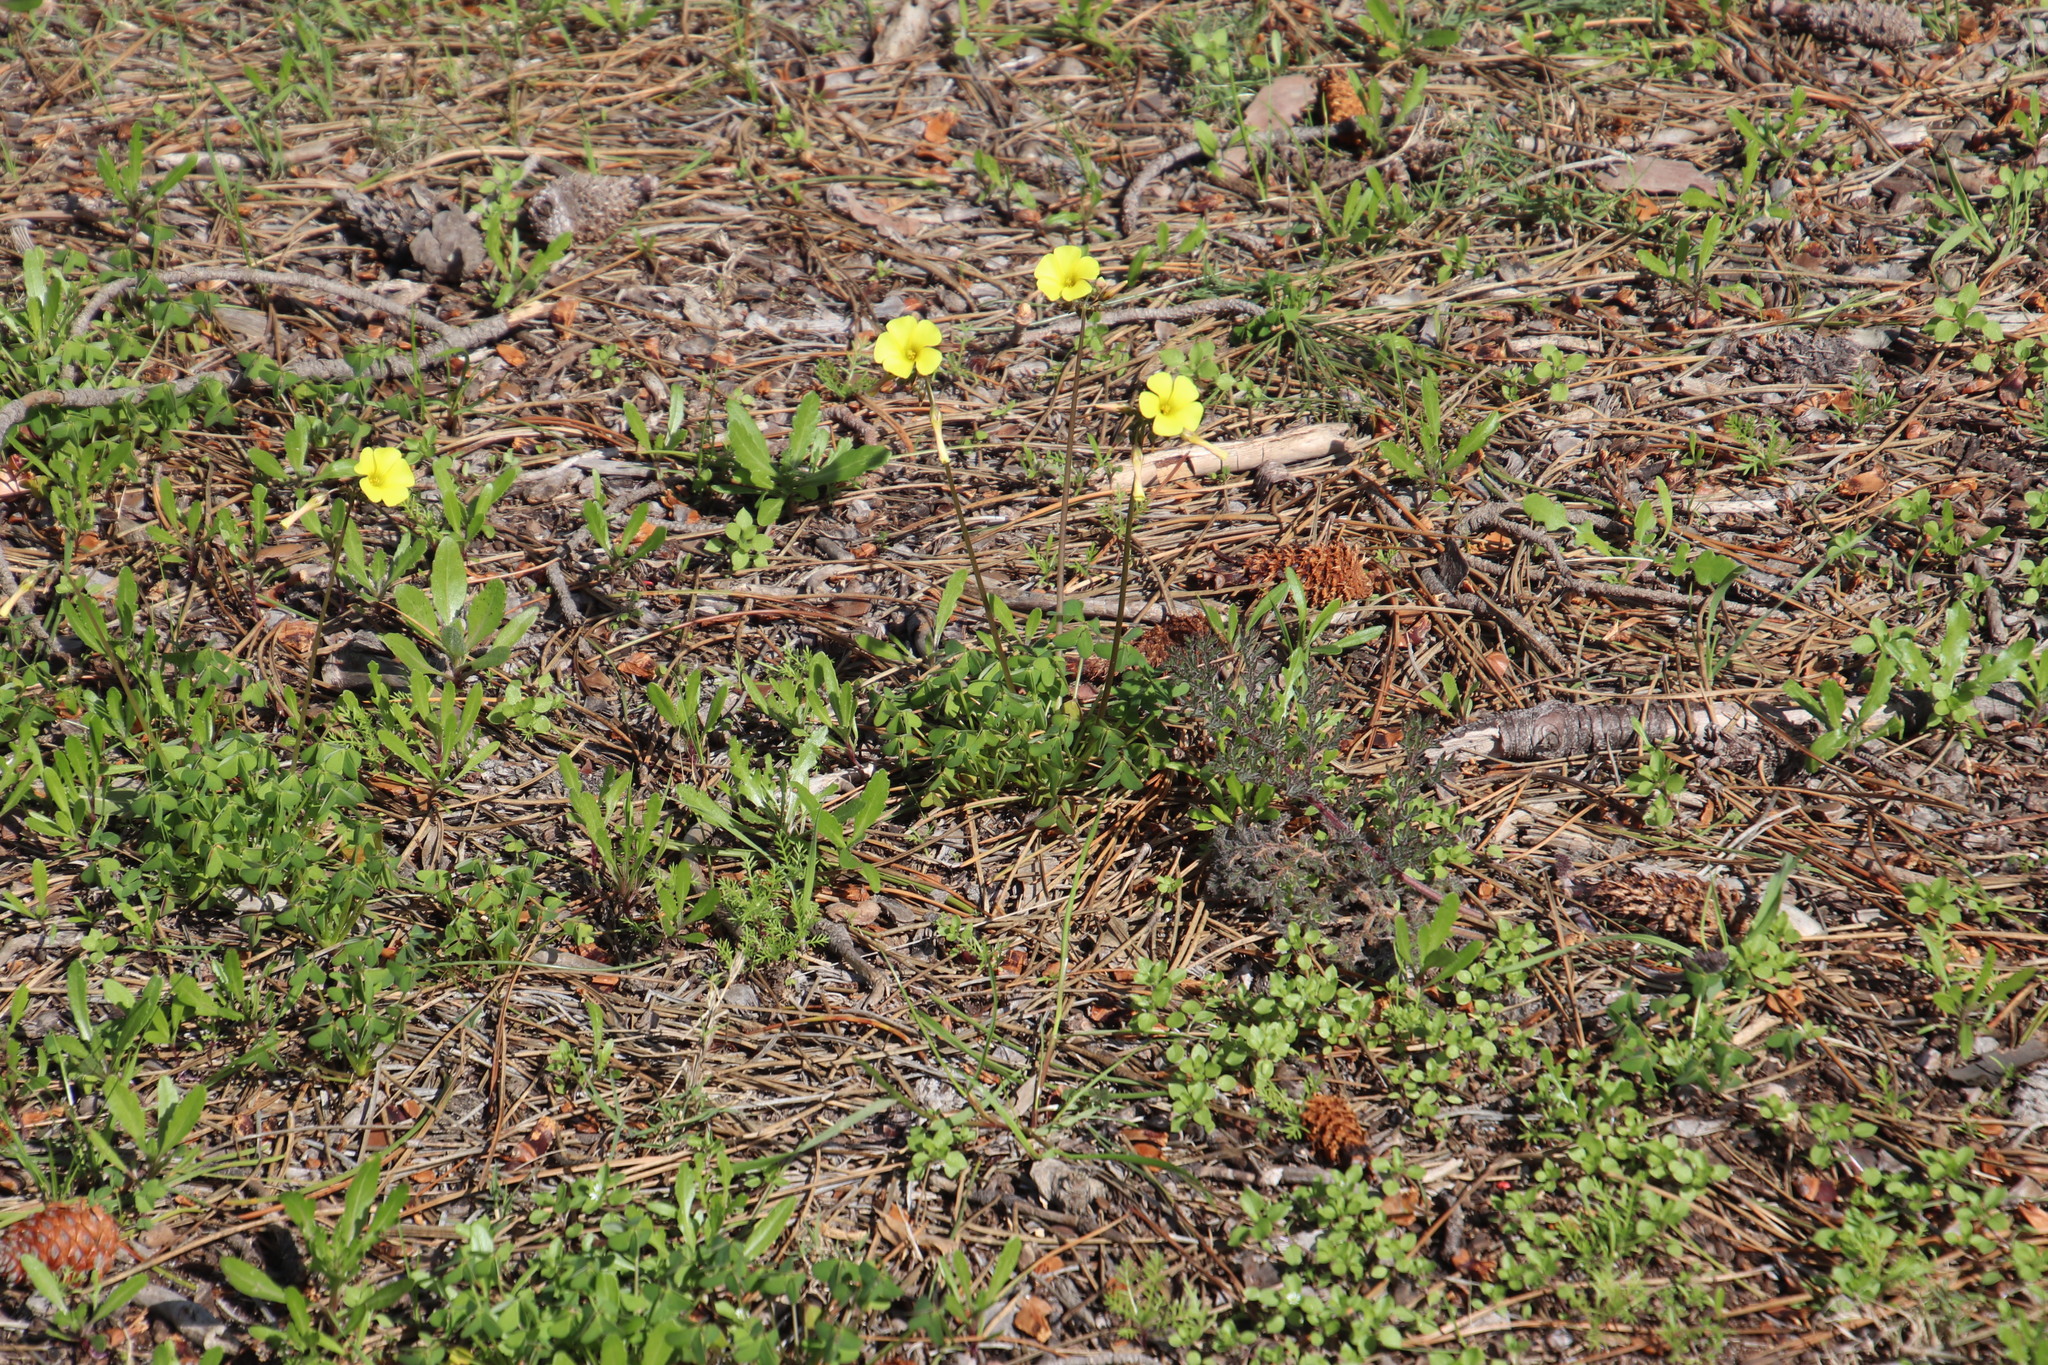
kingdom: Plantae
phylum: Tracheophyta
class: Magnoliopsida
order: Oxalidales
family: Oxalidaceae
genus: Oxalis
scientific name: Oxalis pes-caprae
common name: Bermuda-buttercup
